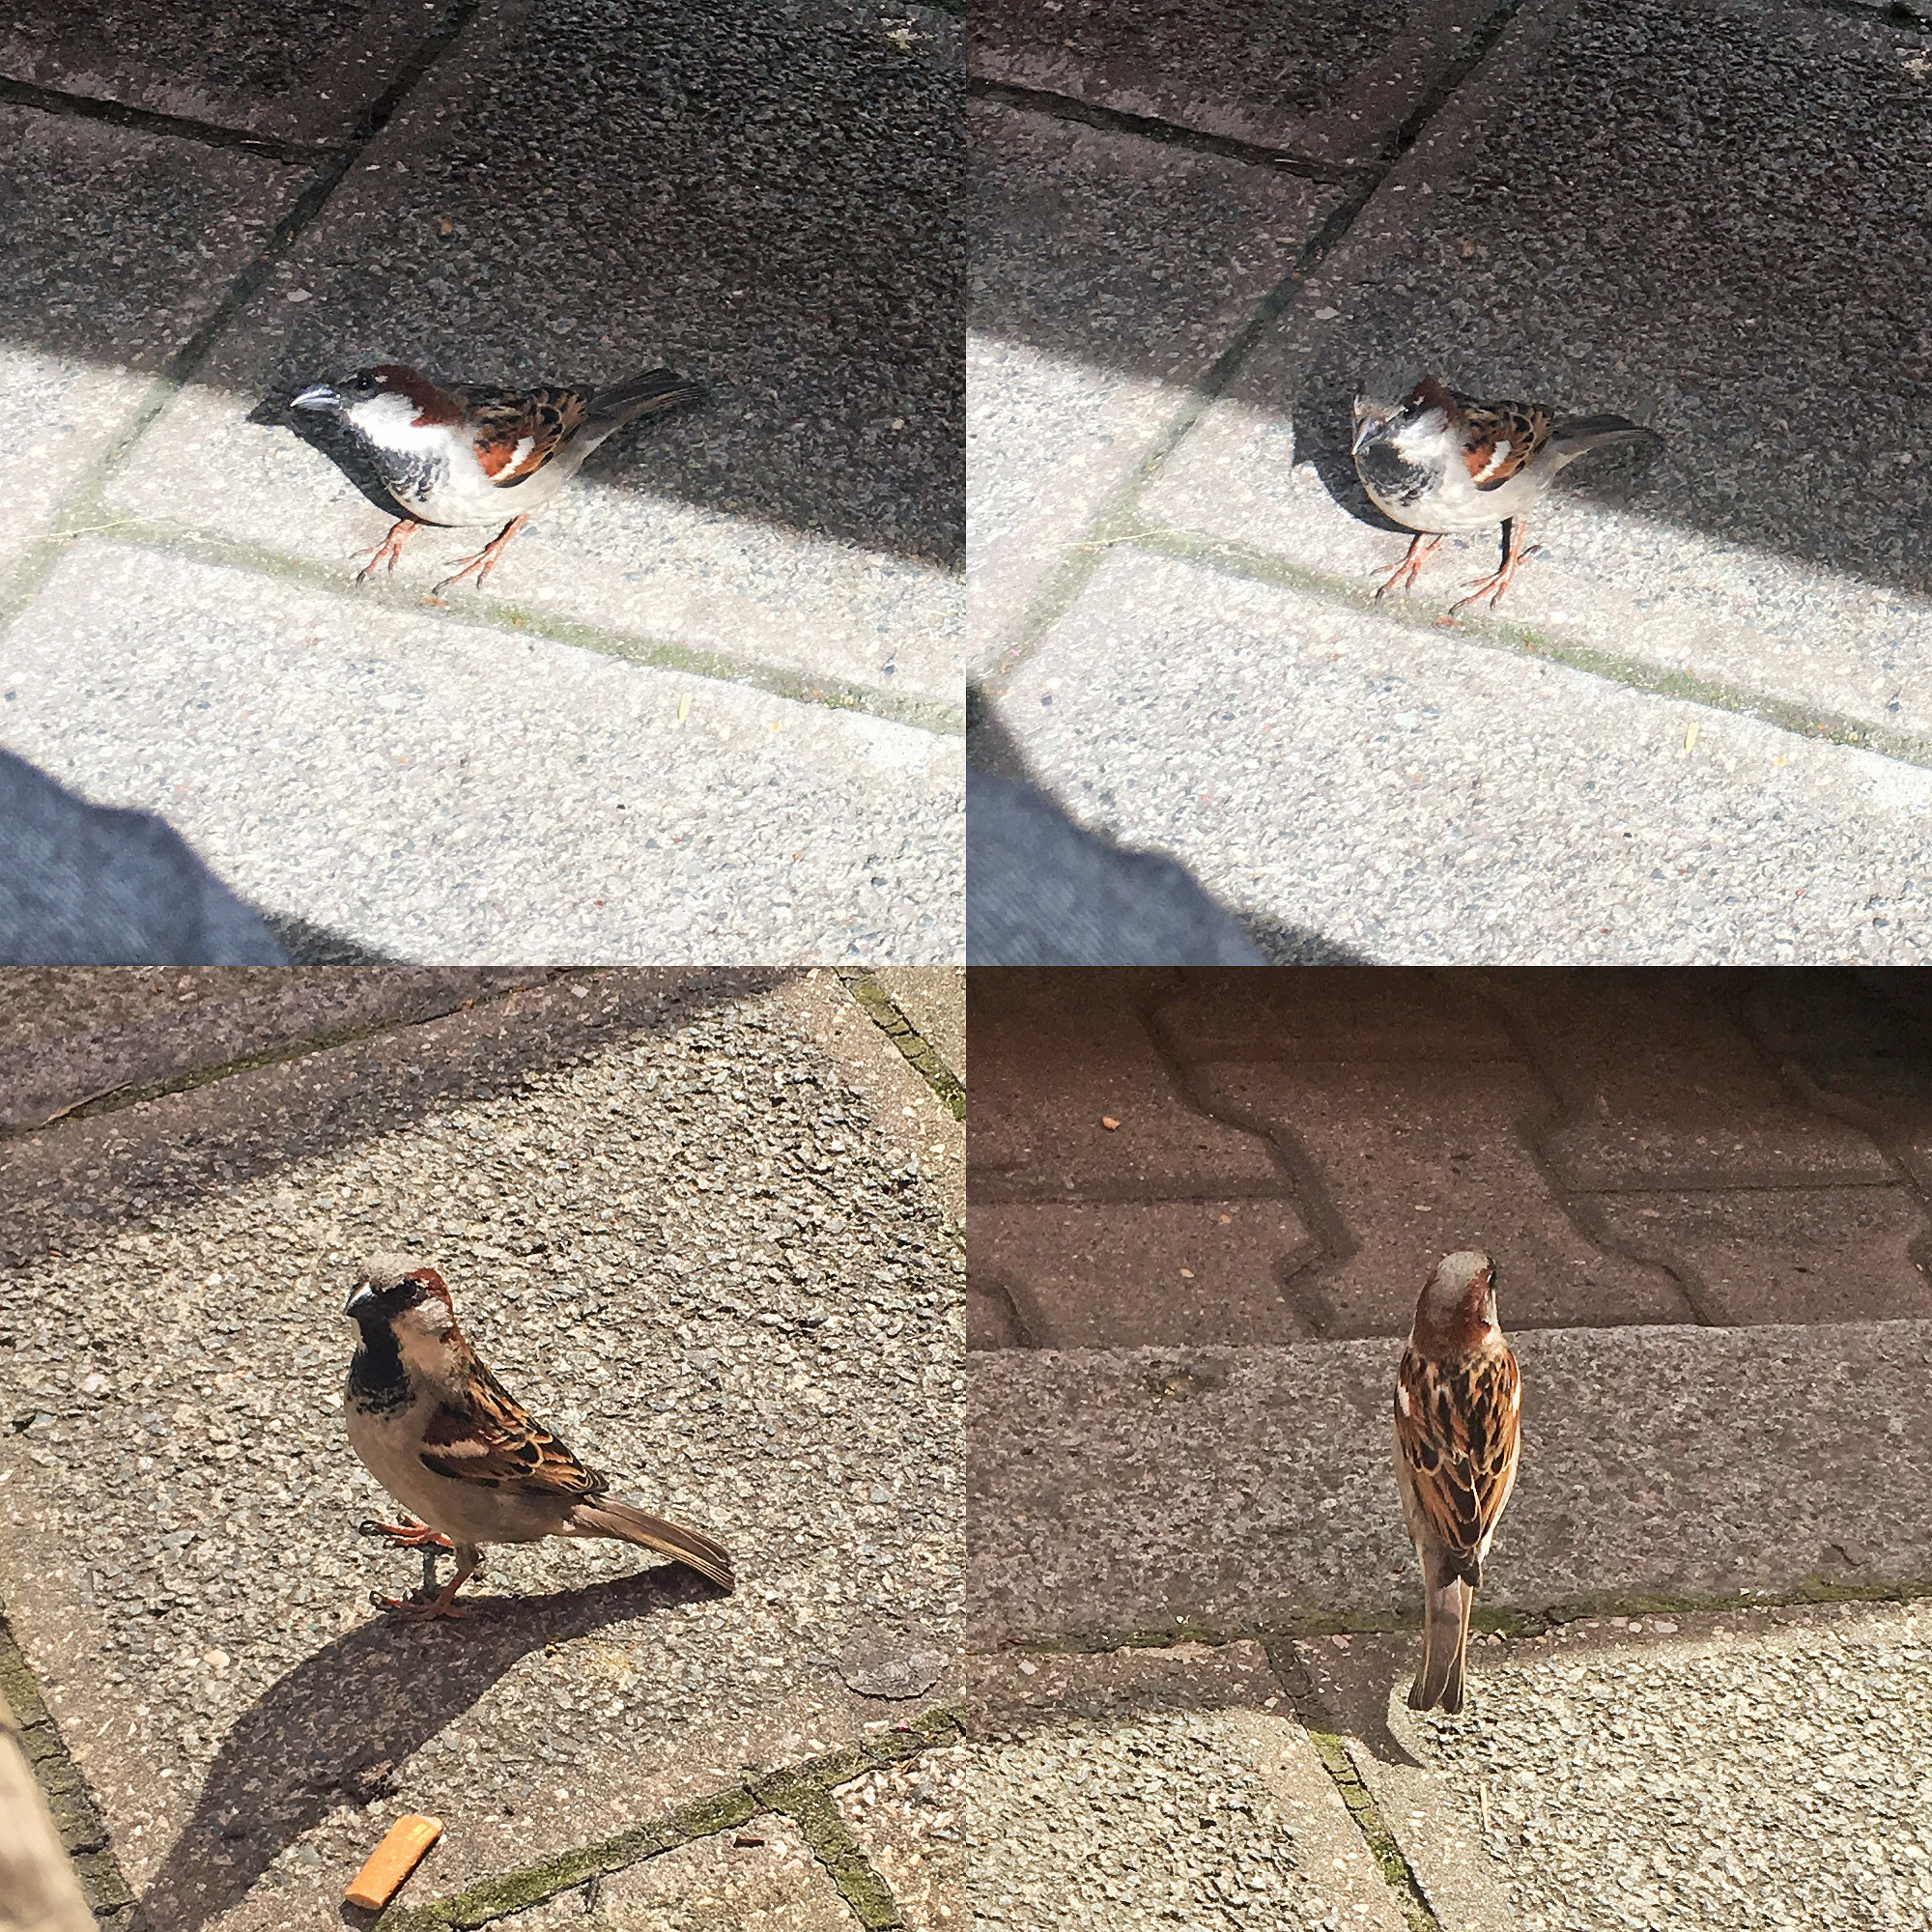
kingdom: Animalia
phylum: Chordata
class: Aves
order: Passeriformes
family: Passeridae
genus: Passer
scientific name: Passer domesticus
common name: House sparrow
